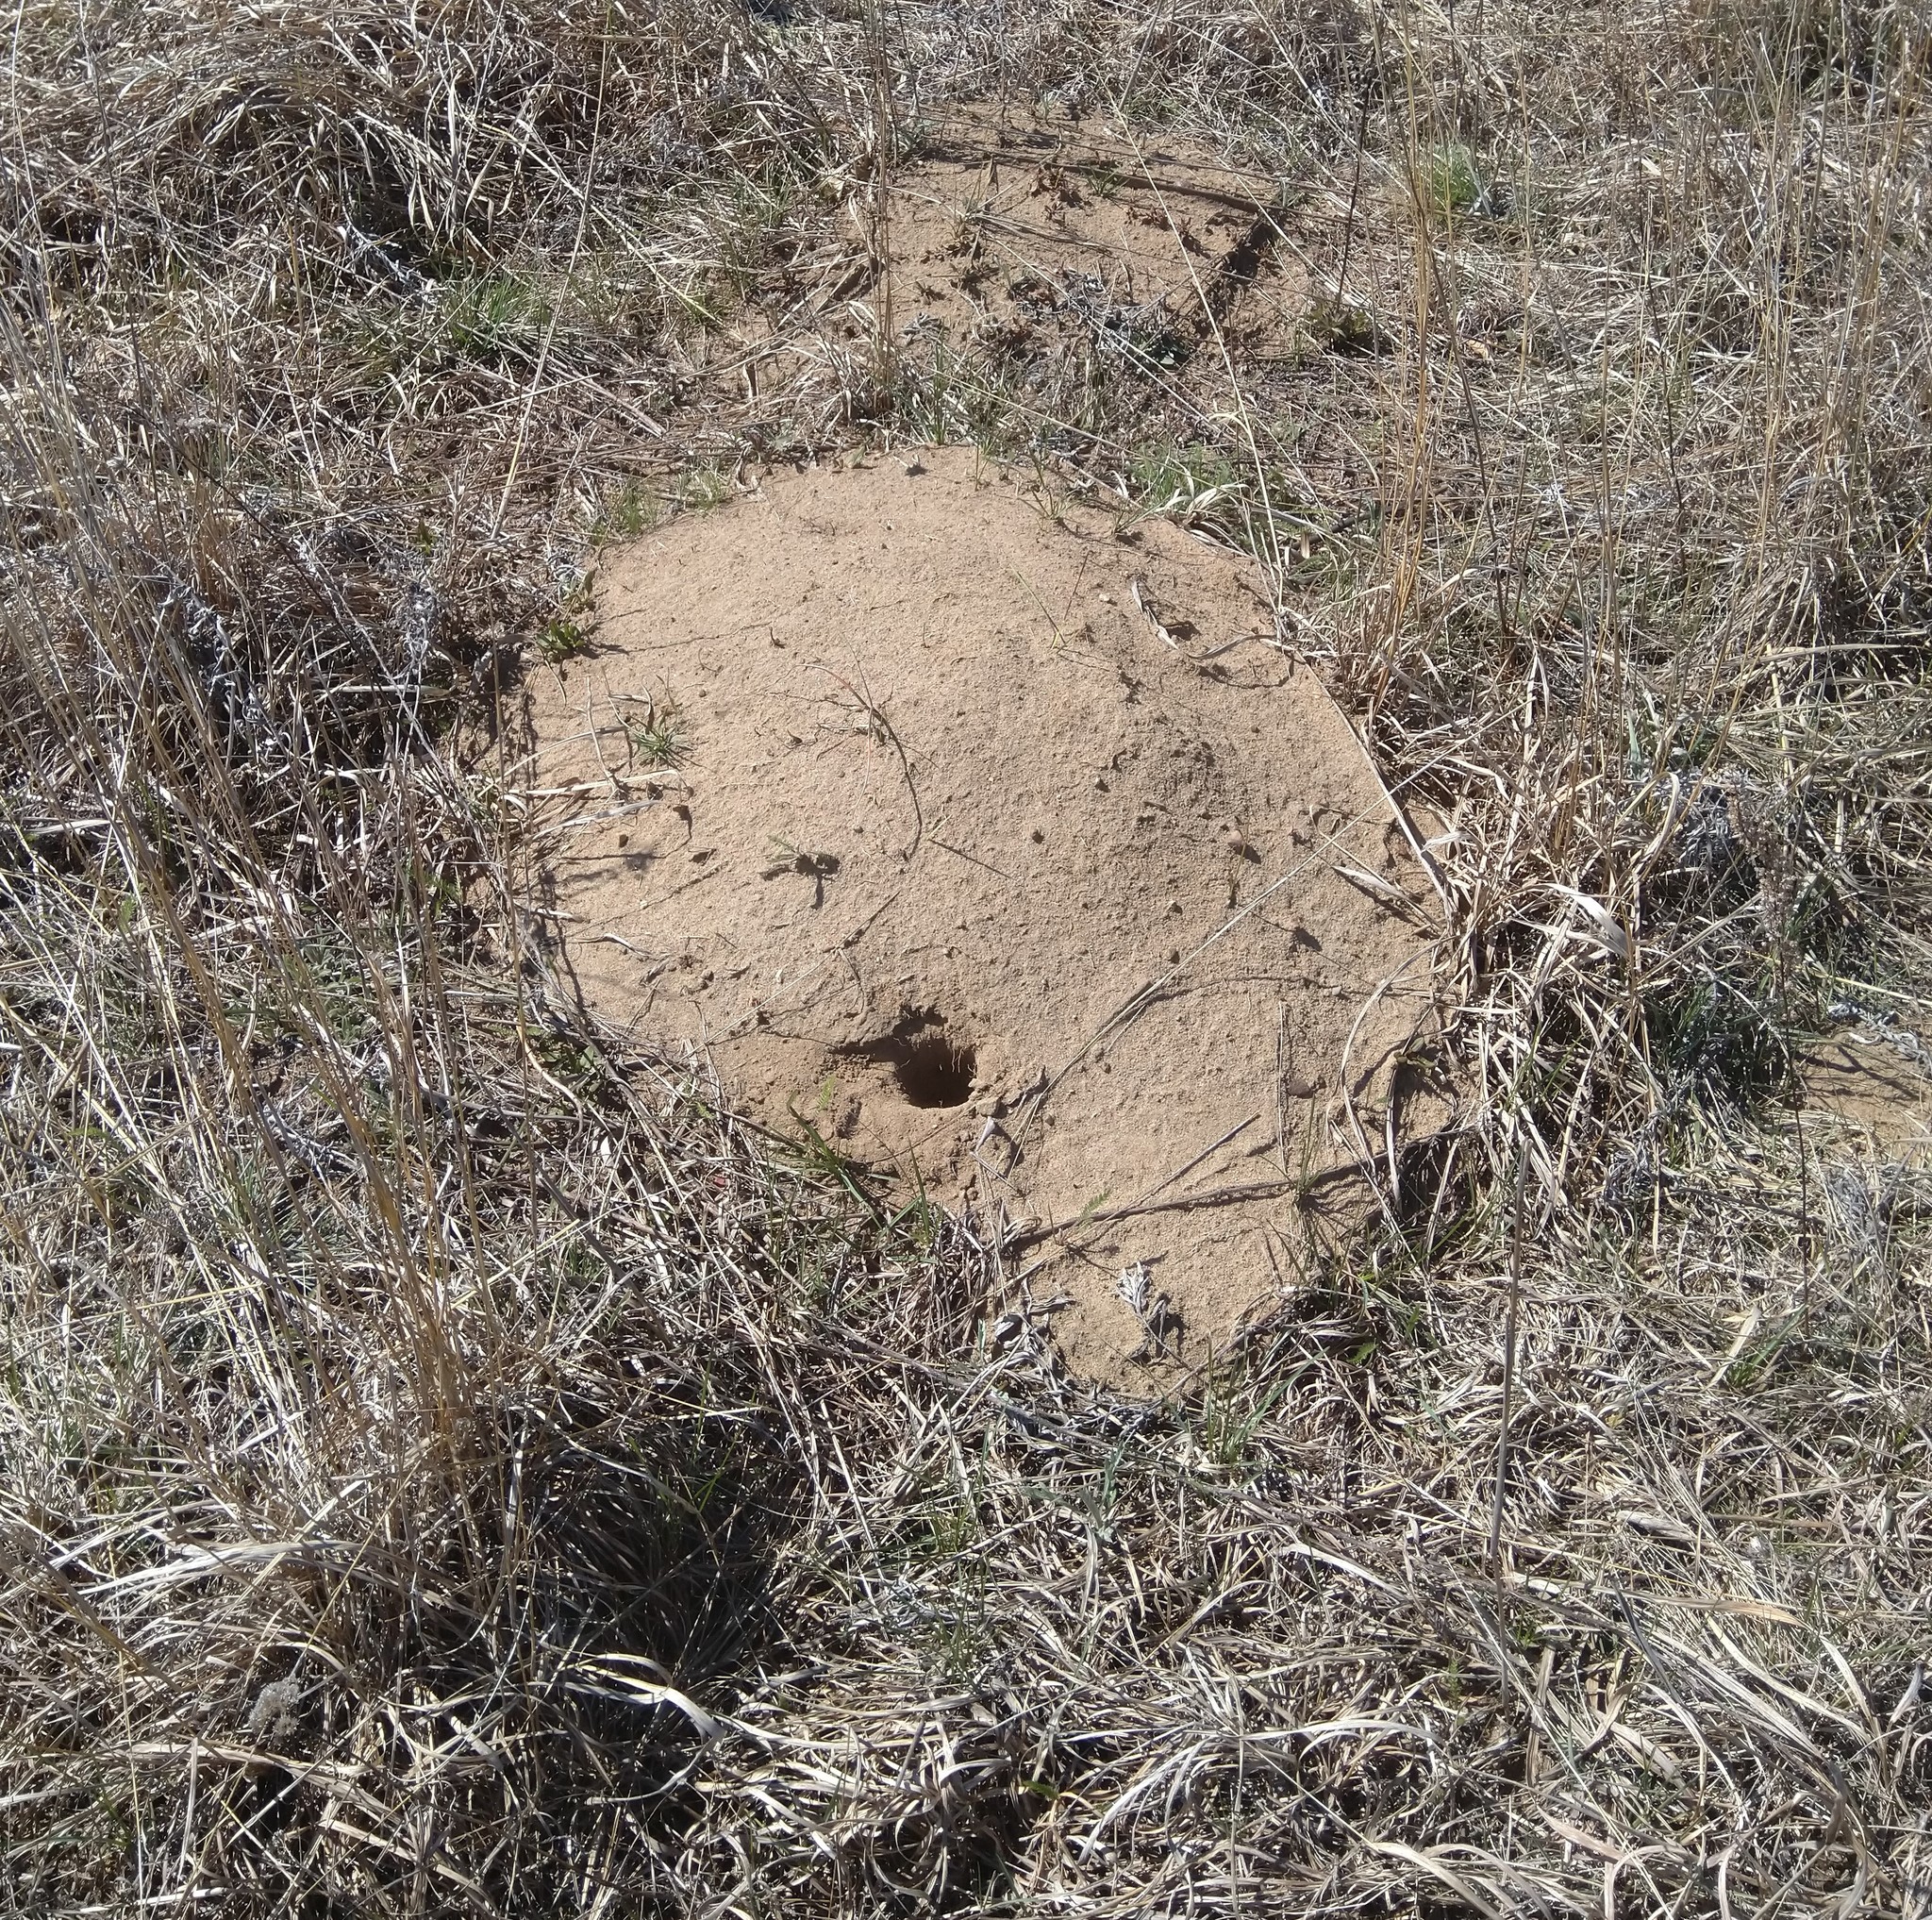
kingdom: Animalia
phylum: Chordata
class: Mammalia
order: Rodentia
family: Geomyidae
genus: Geomys
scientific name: Geomys bursarius
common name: Plains pocket gopher
